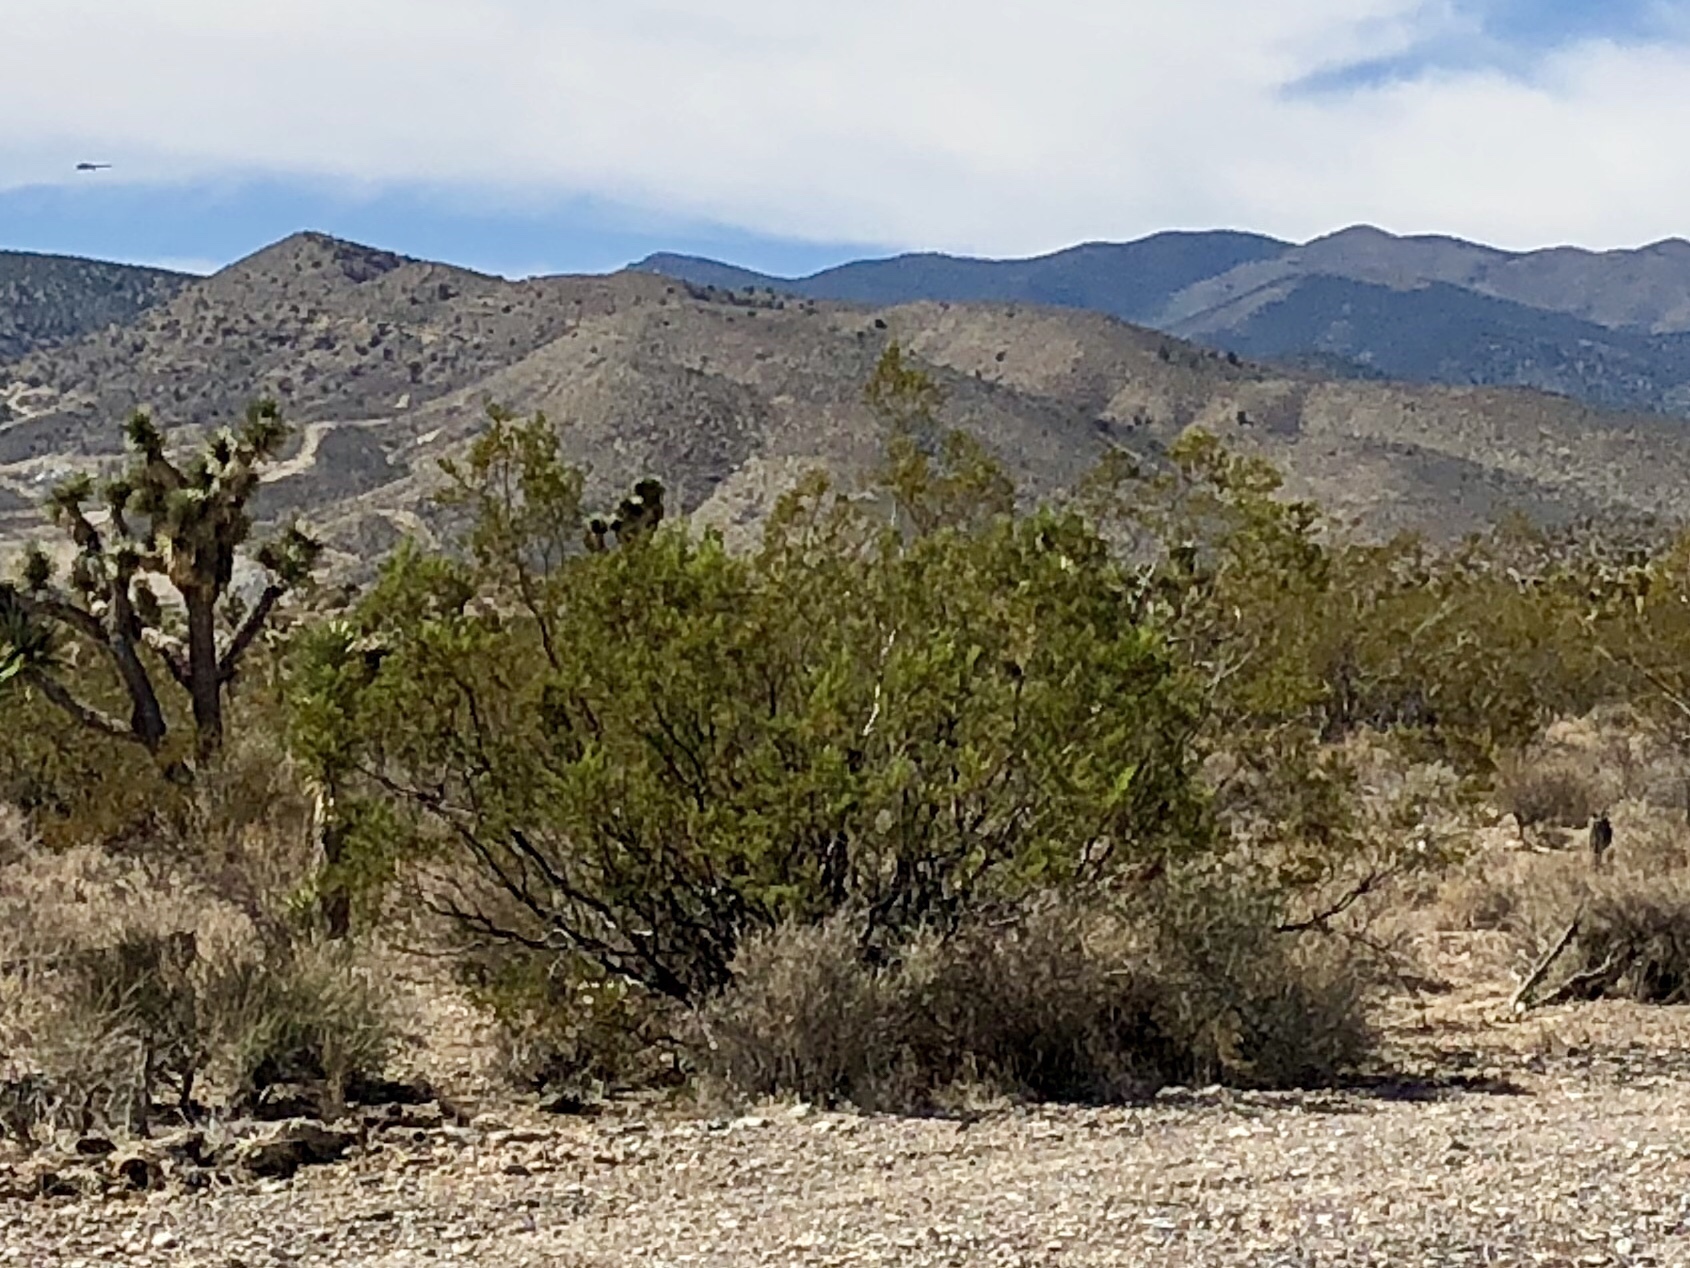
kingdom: Plantae
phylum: Tracheophyta
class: Magnoliopsida
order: Zygophyllales
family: Zygophyllaceae
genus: Larrea
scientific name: Larrea tridentata
